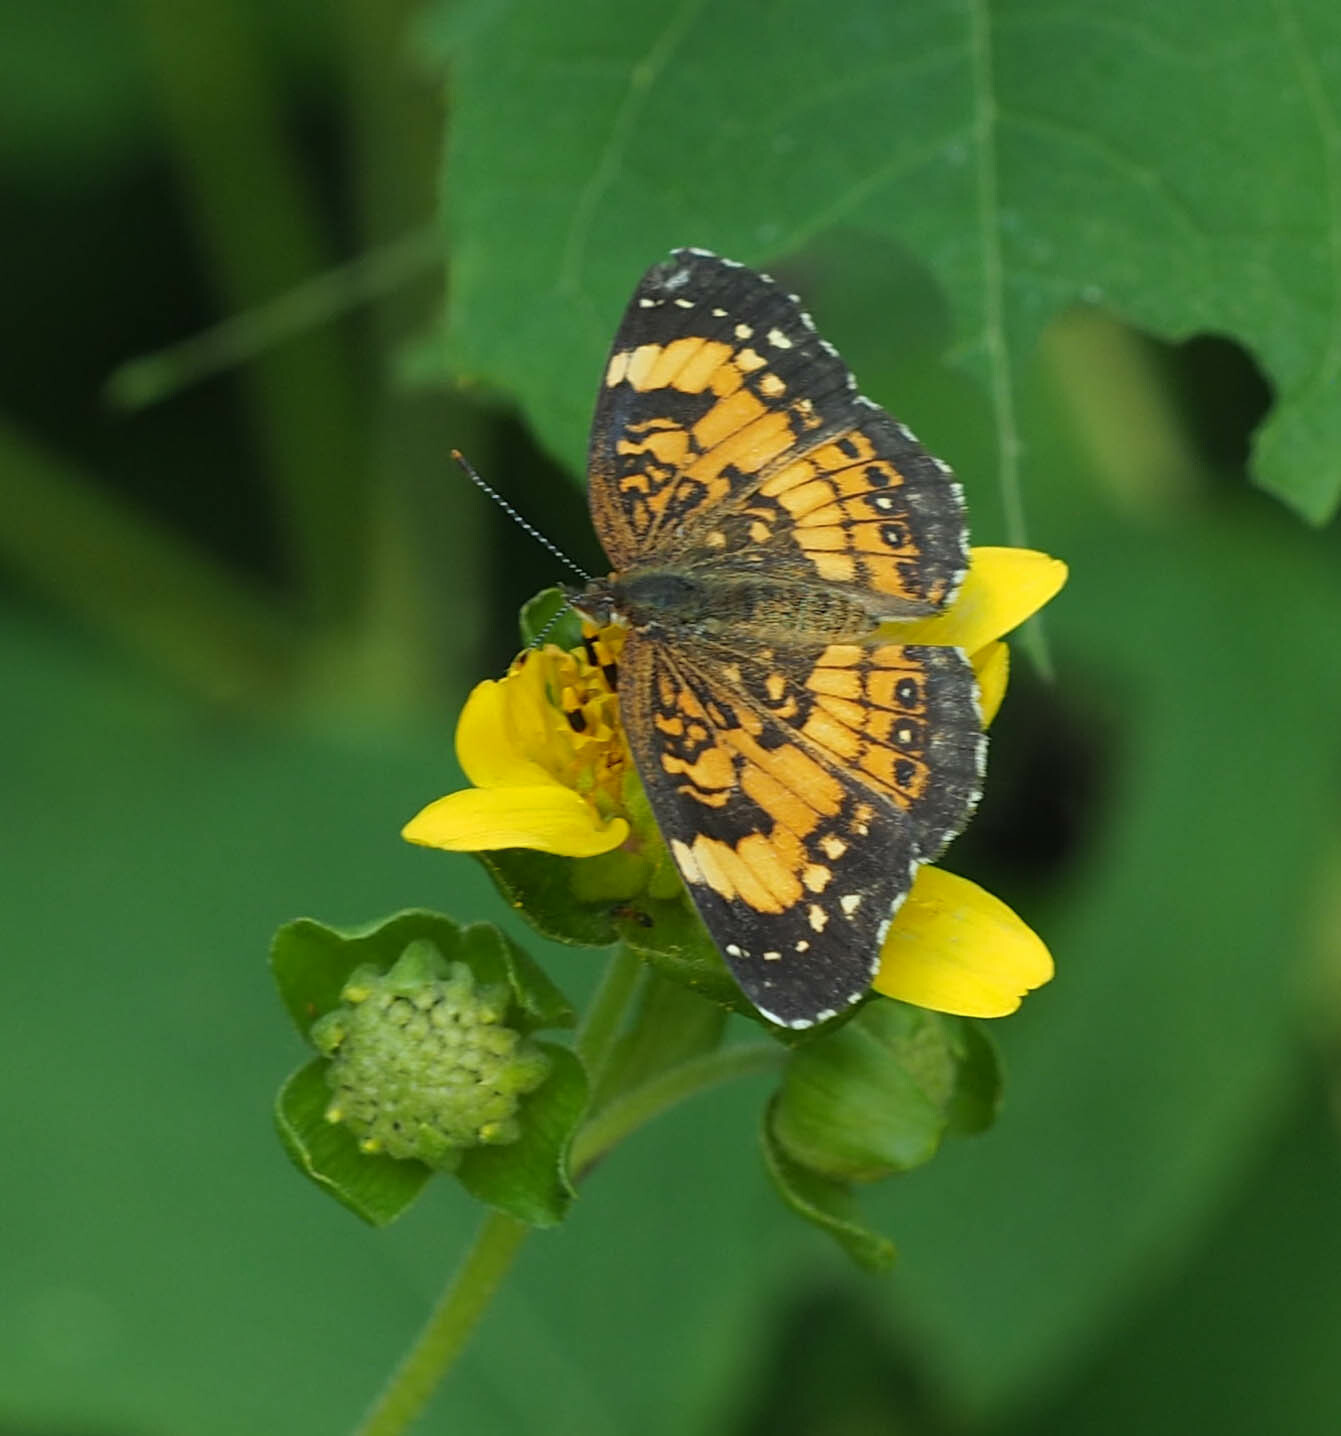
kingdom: Animalia
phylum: Arthropoda
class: Insecta
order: Lepidoptera
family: Nymphalidae
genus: Chlosyne
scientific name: Chlosyne nycteis
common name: Silvery checkerspot
